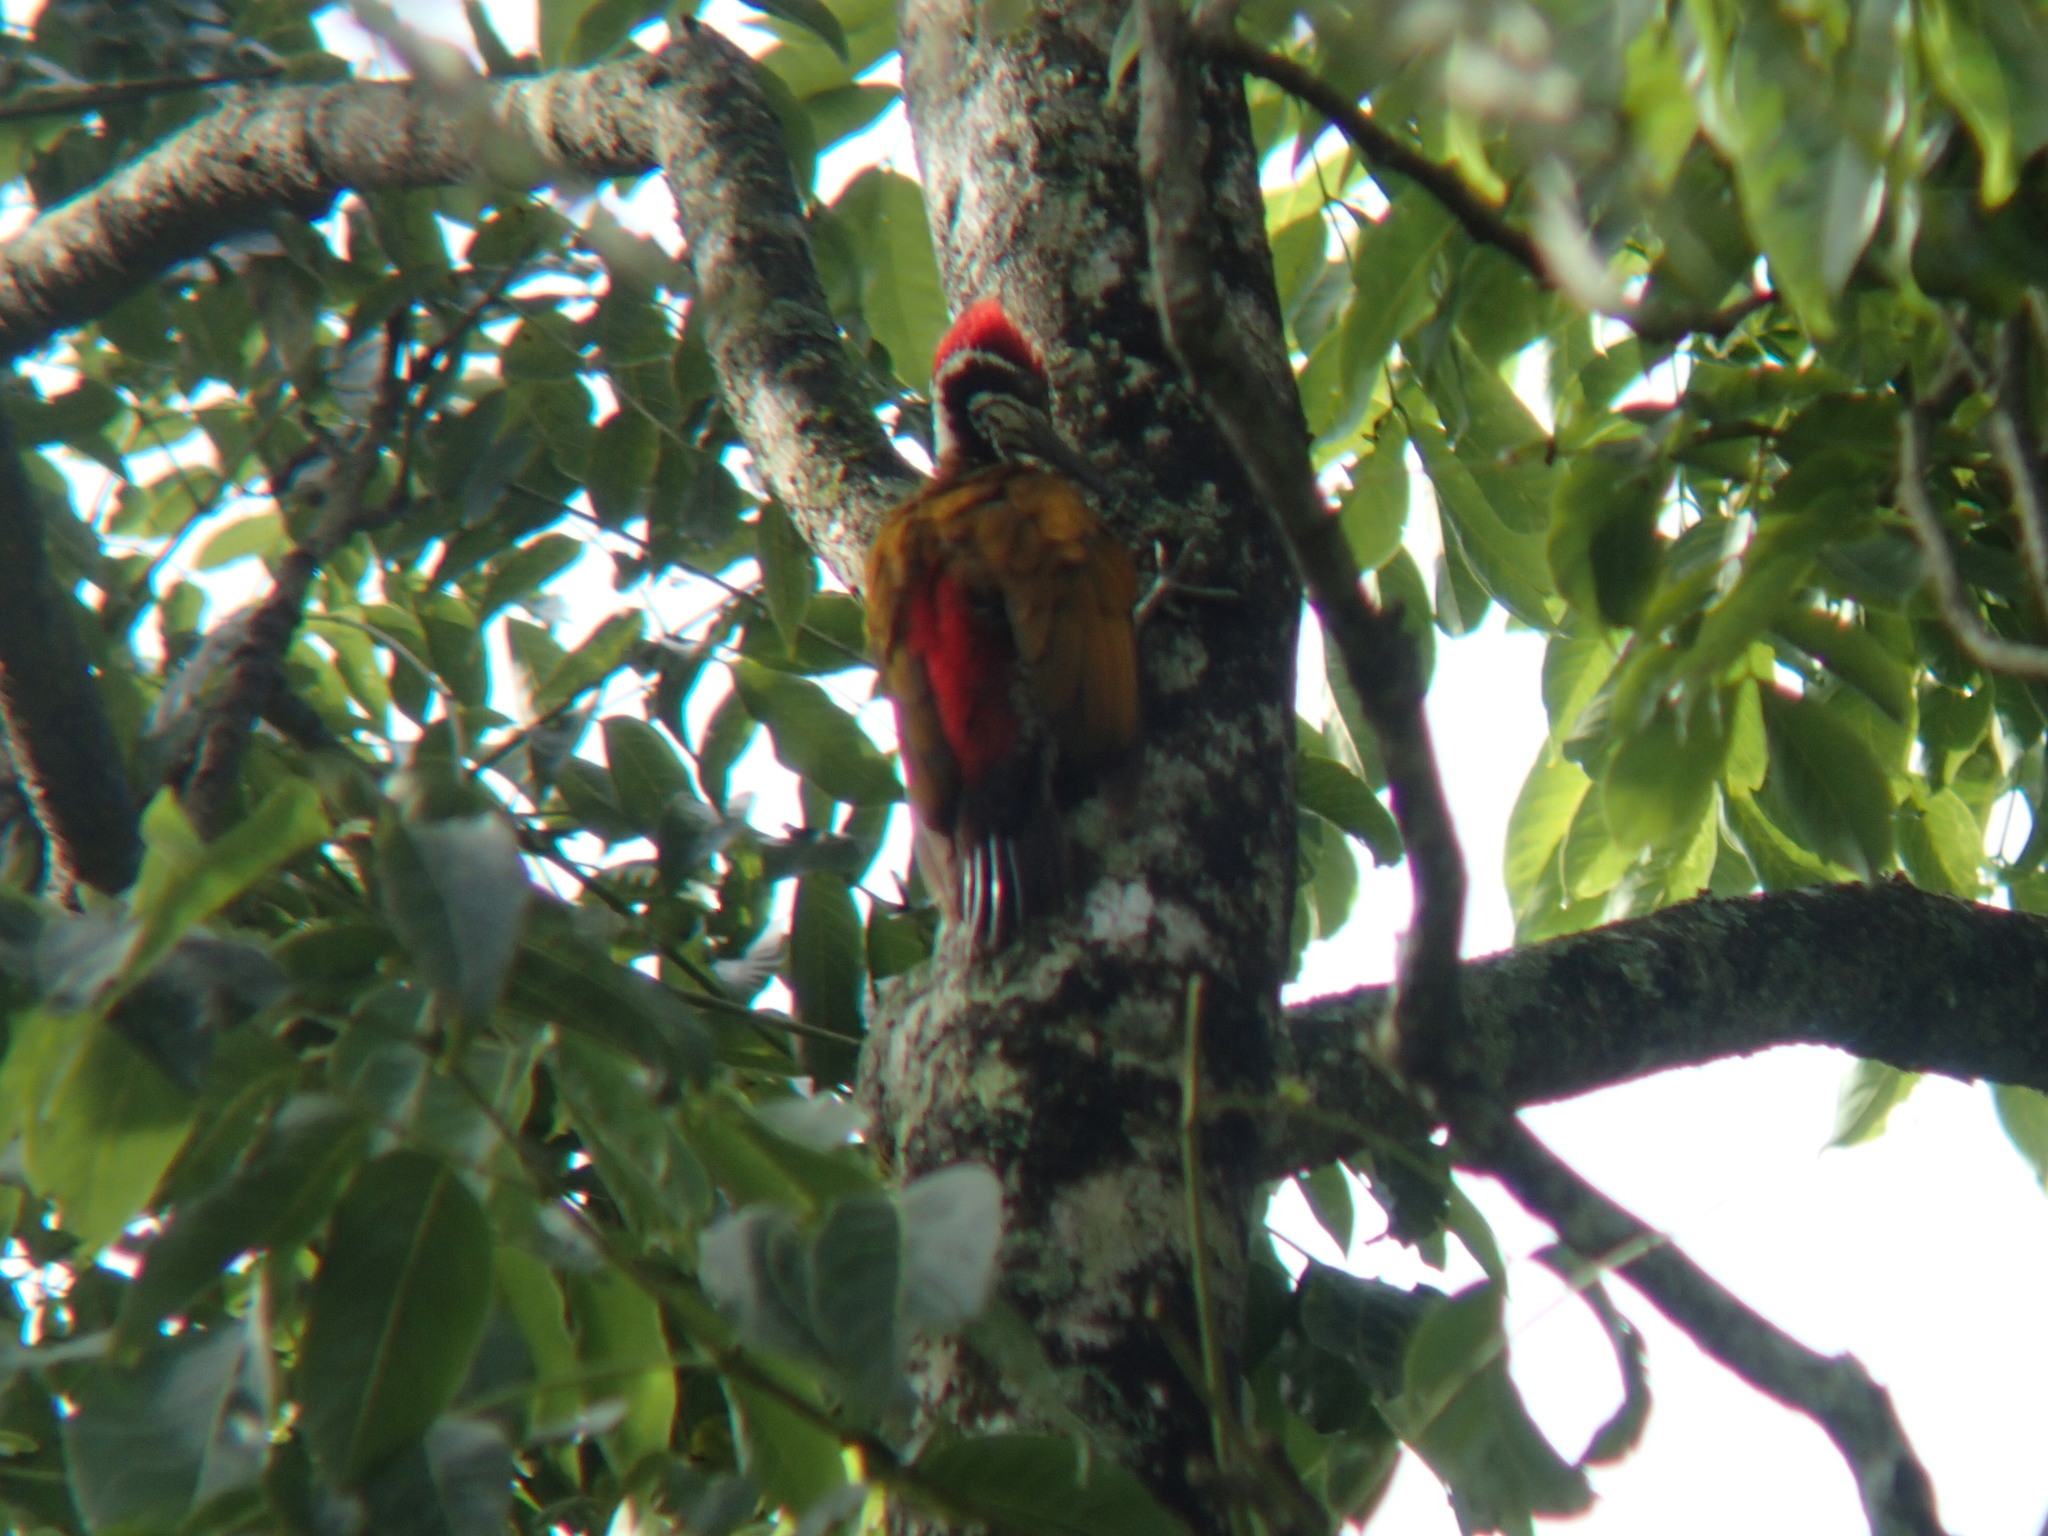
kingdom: Animalia
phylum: Chordata
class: Aves
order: Piciformes
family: Picidae
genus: Chrysocolaptes
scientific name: Chrysocolaptes socialis
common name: Malabar flameback
